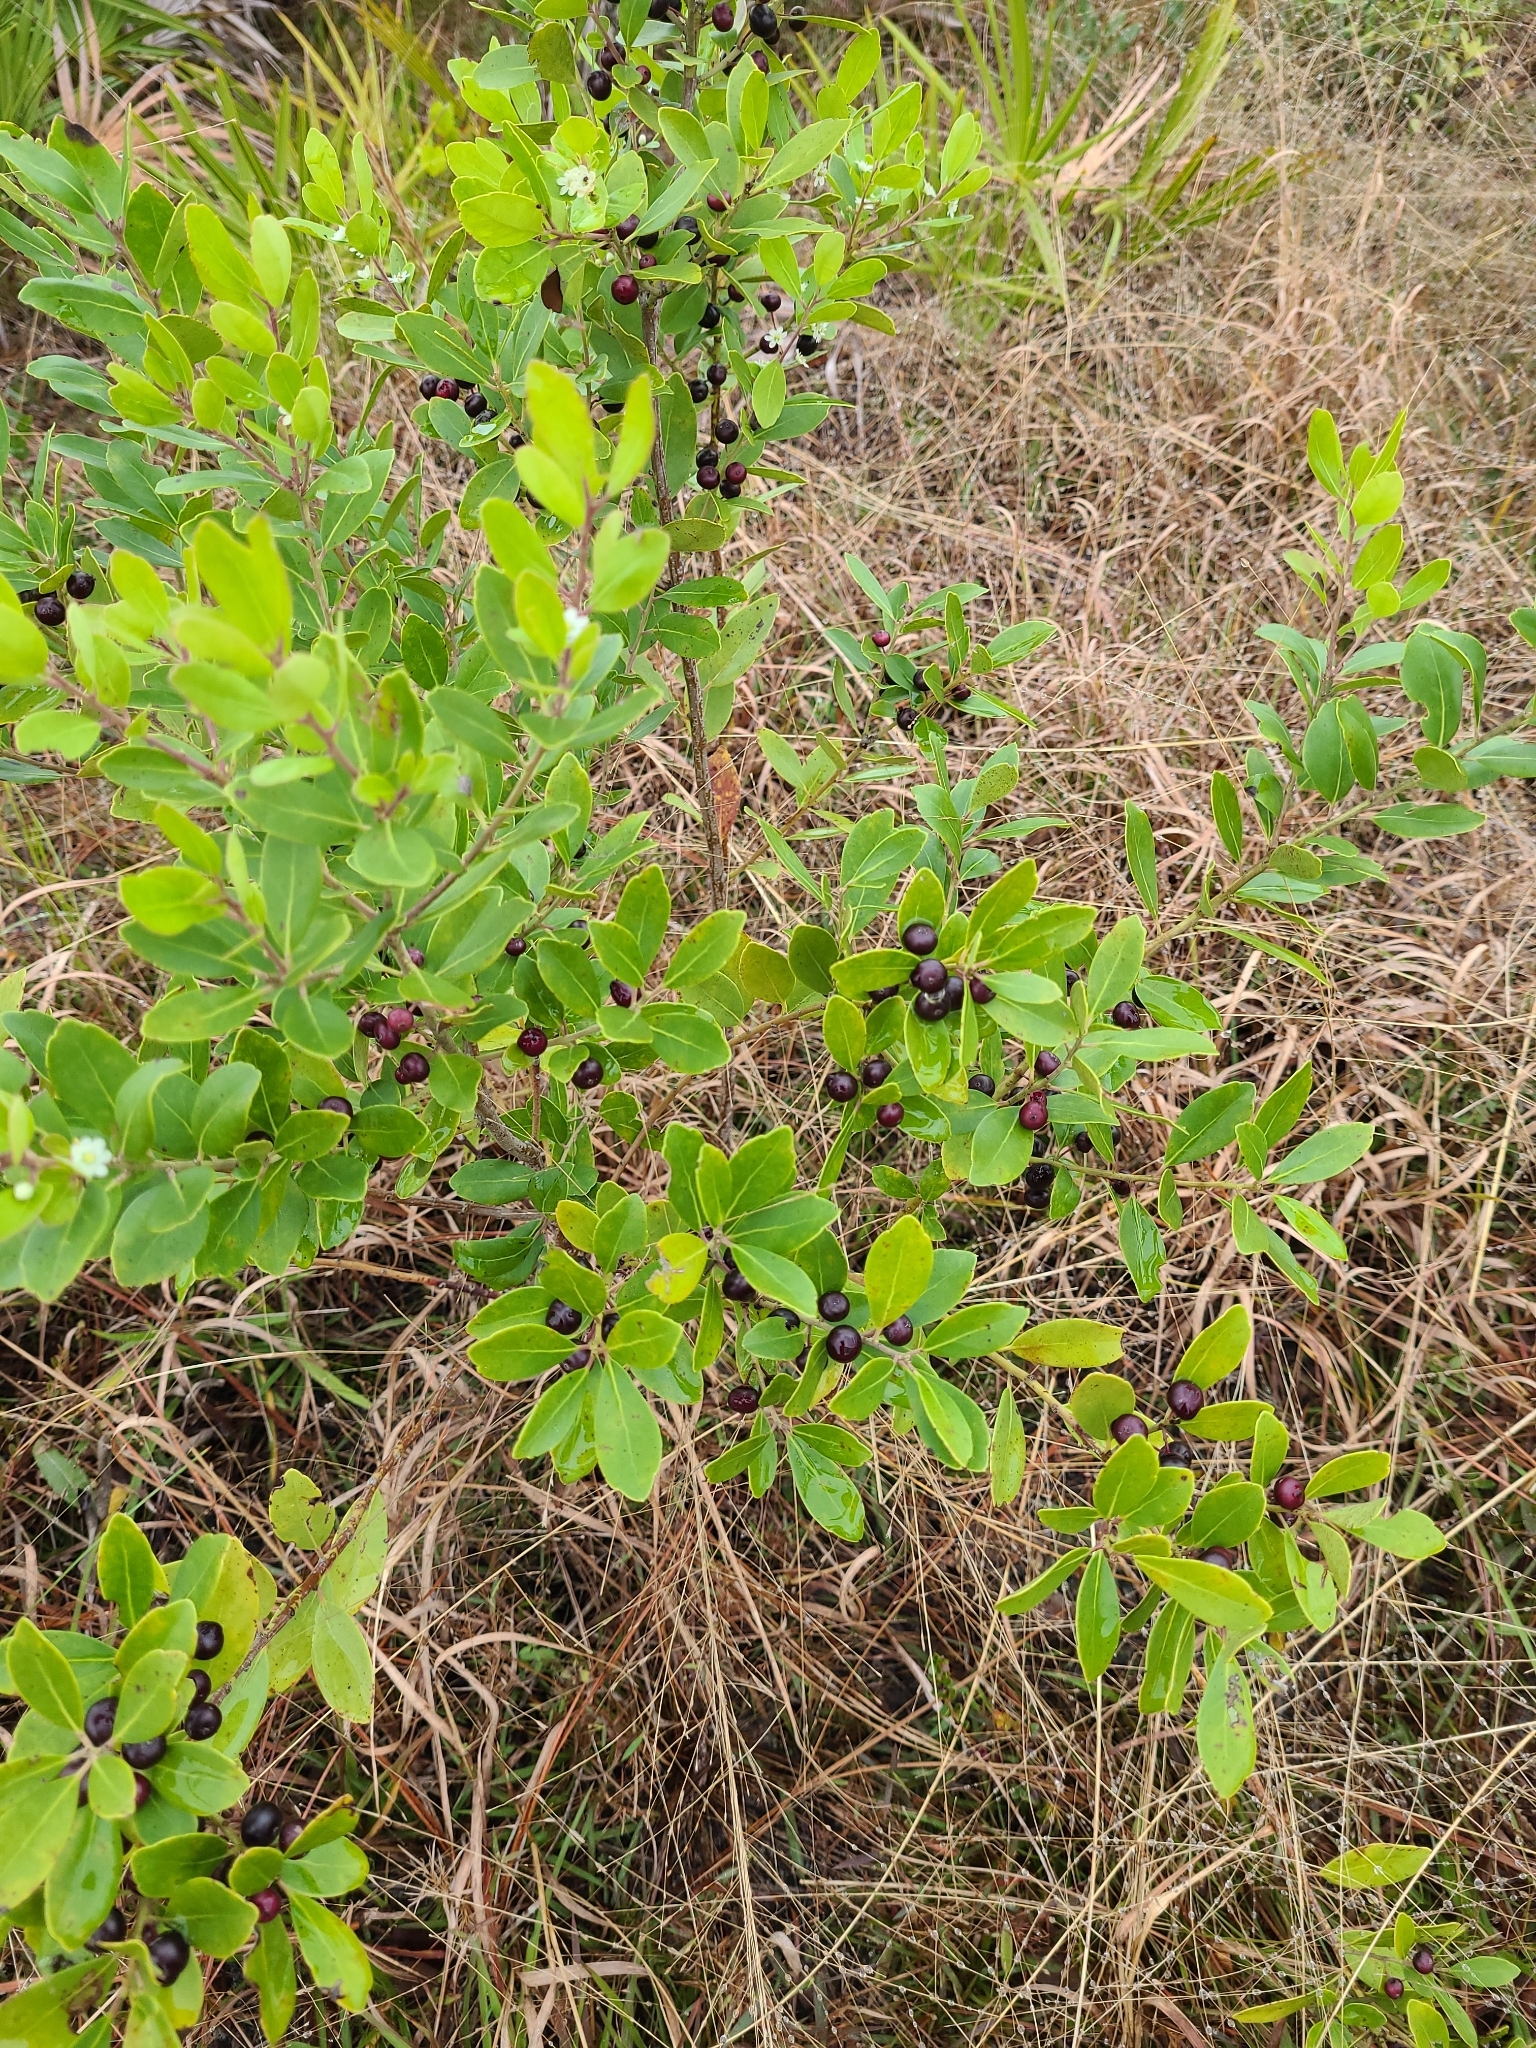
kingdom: Plantae
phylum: Tracheophyta
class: Magnoliopsida
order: Aquifoliales
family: Aquifoliaceae
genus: Ilex
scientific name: Ilex glabra
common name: Bitter gallberry
